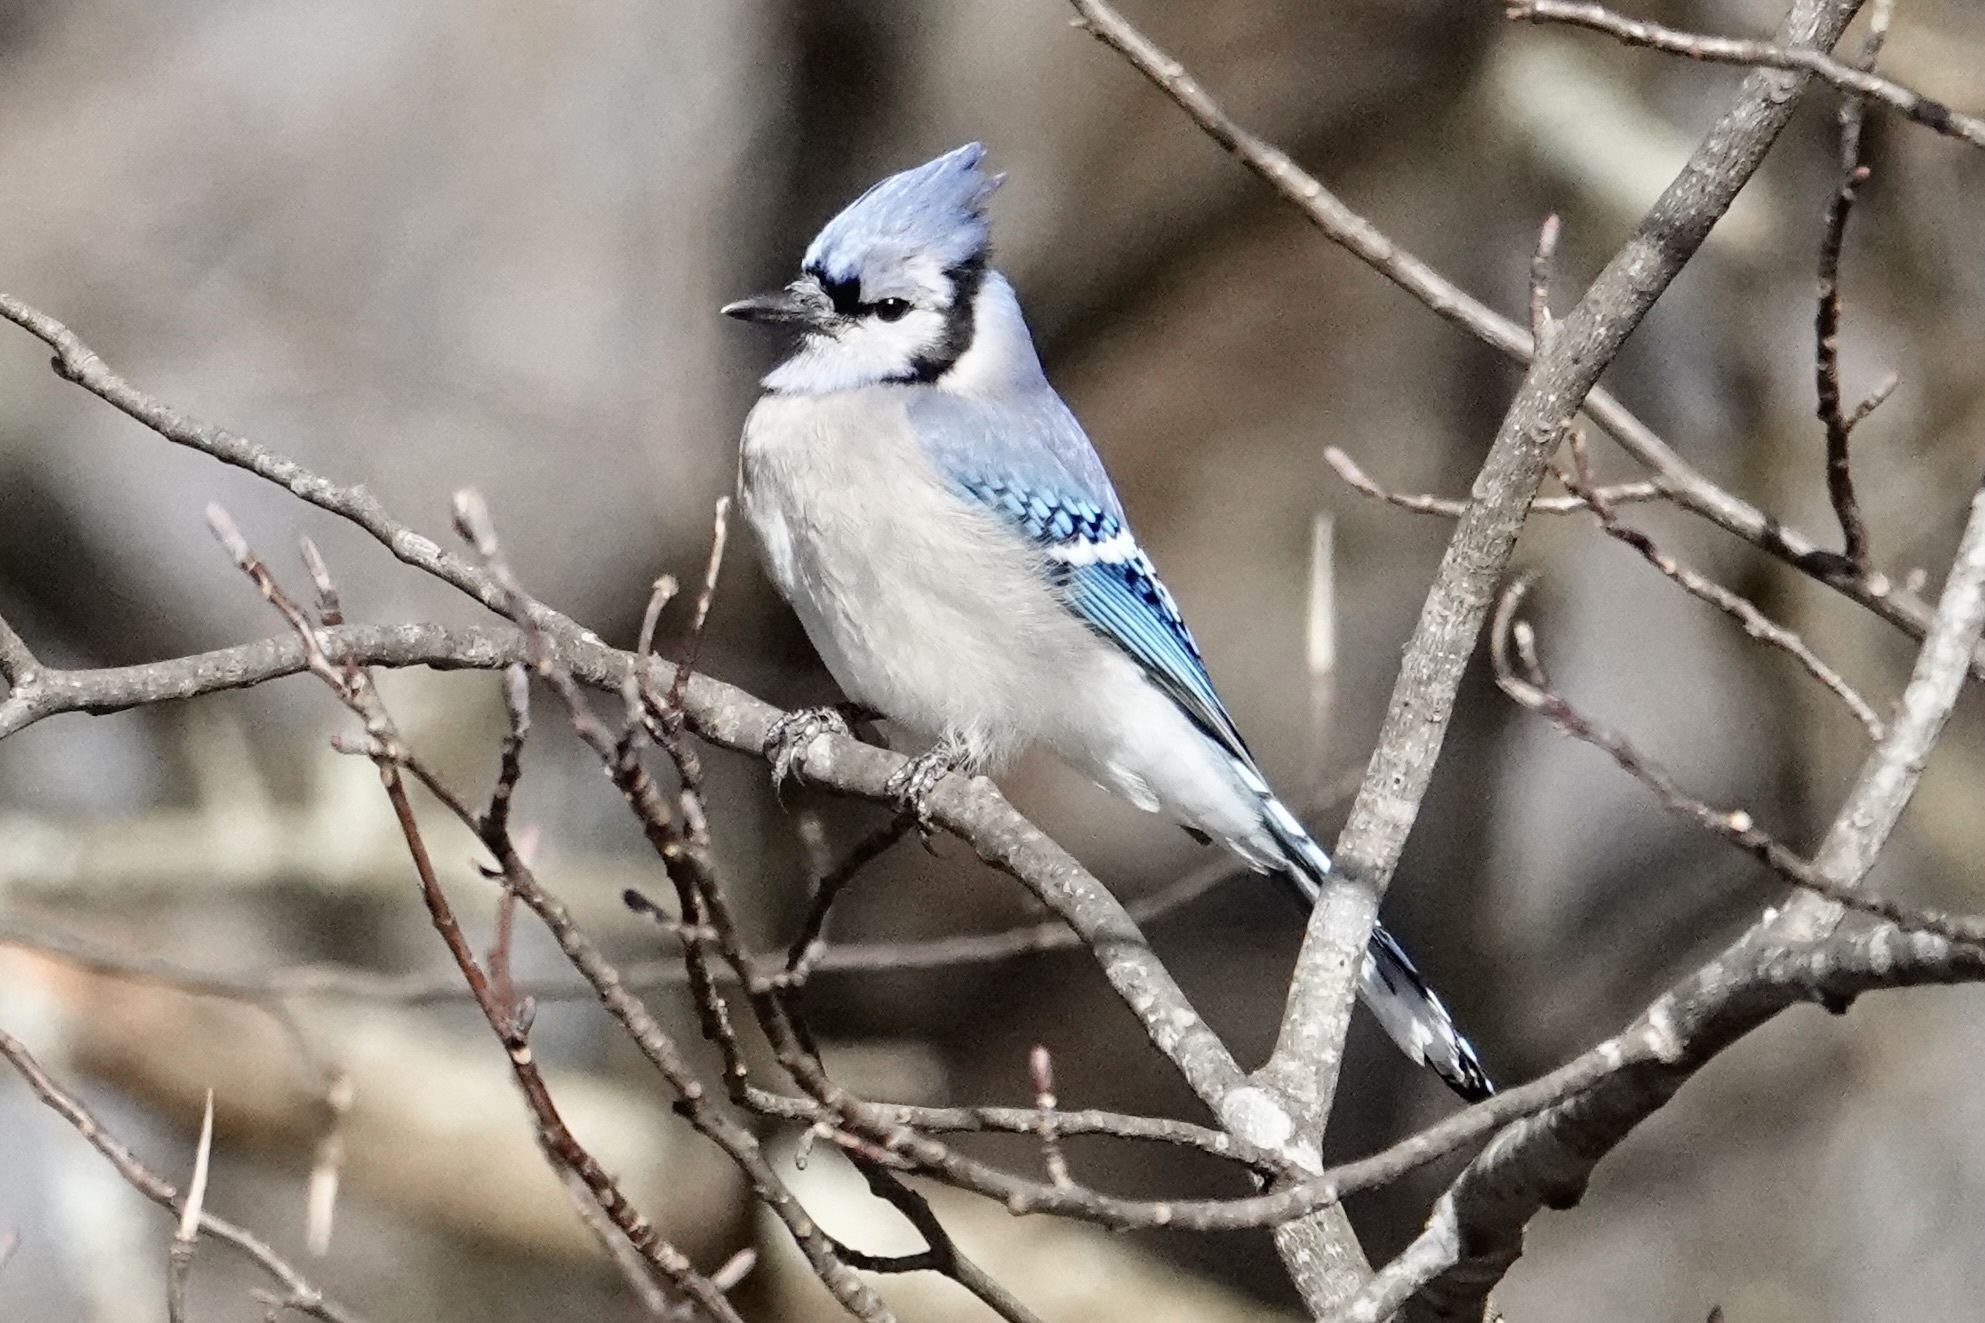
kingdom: Animalia
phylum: Chordata
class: Aves
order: Passeriformes
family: Corvidae
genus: Cyanocitta
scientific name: Cyanocitta cristata
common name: Blue jay
